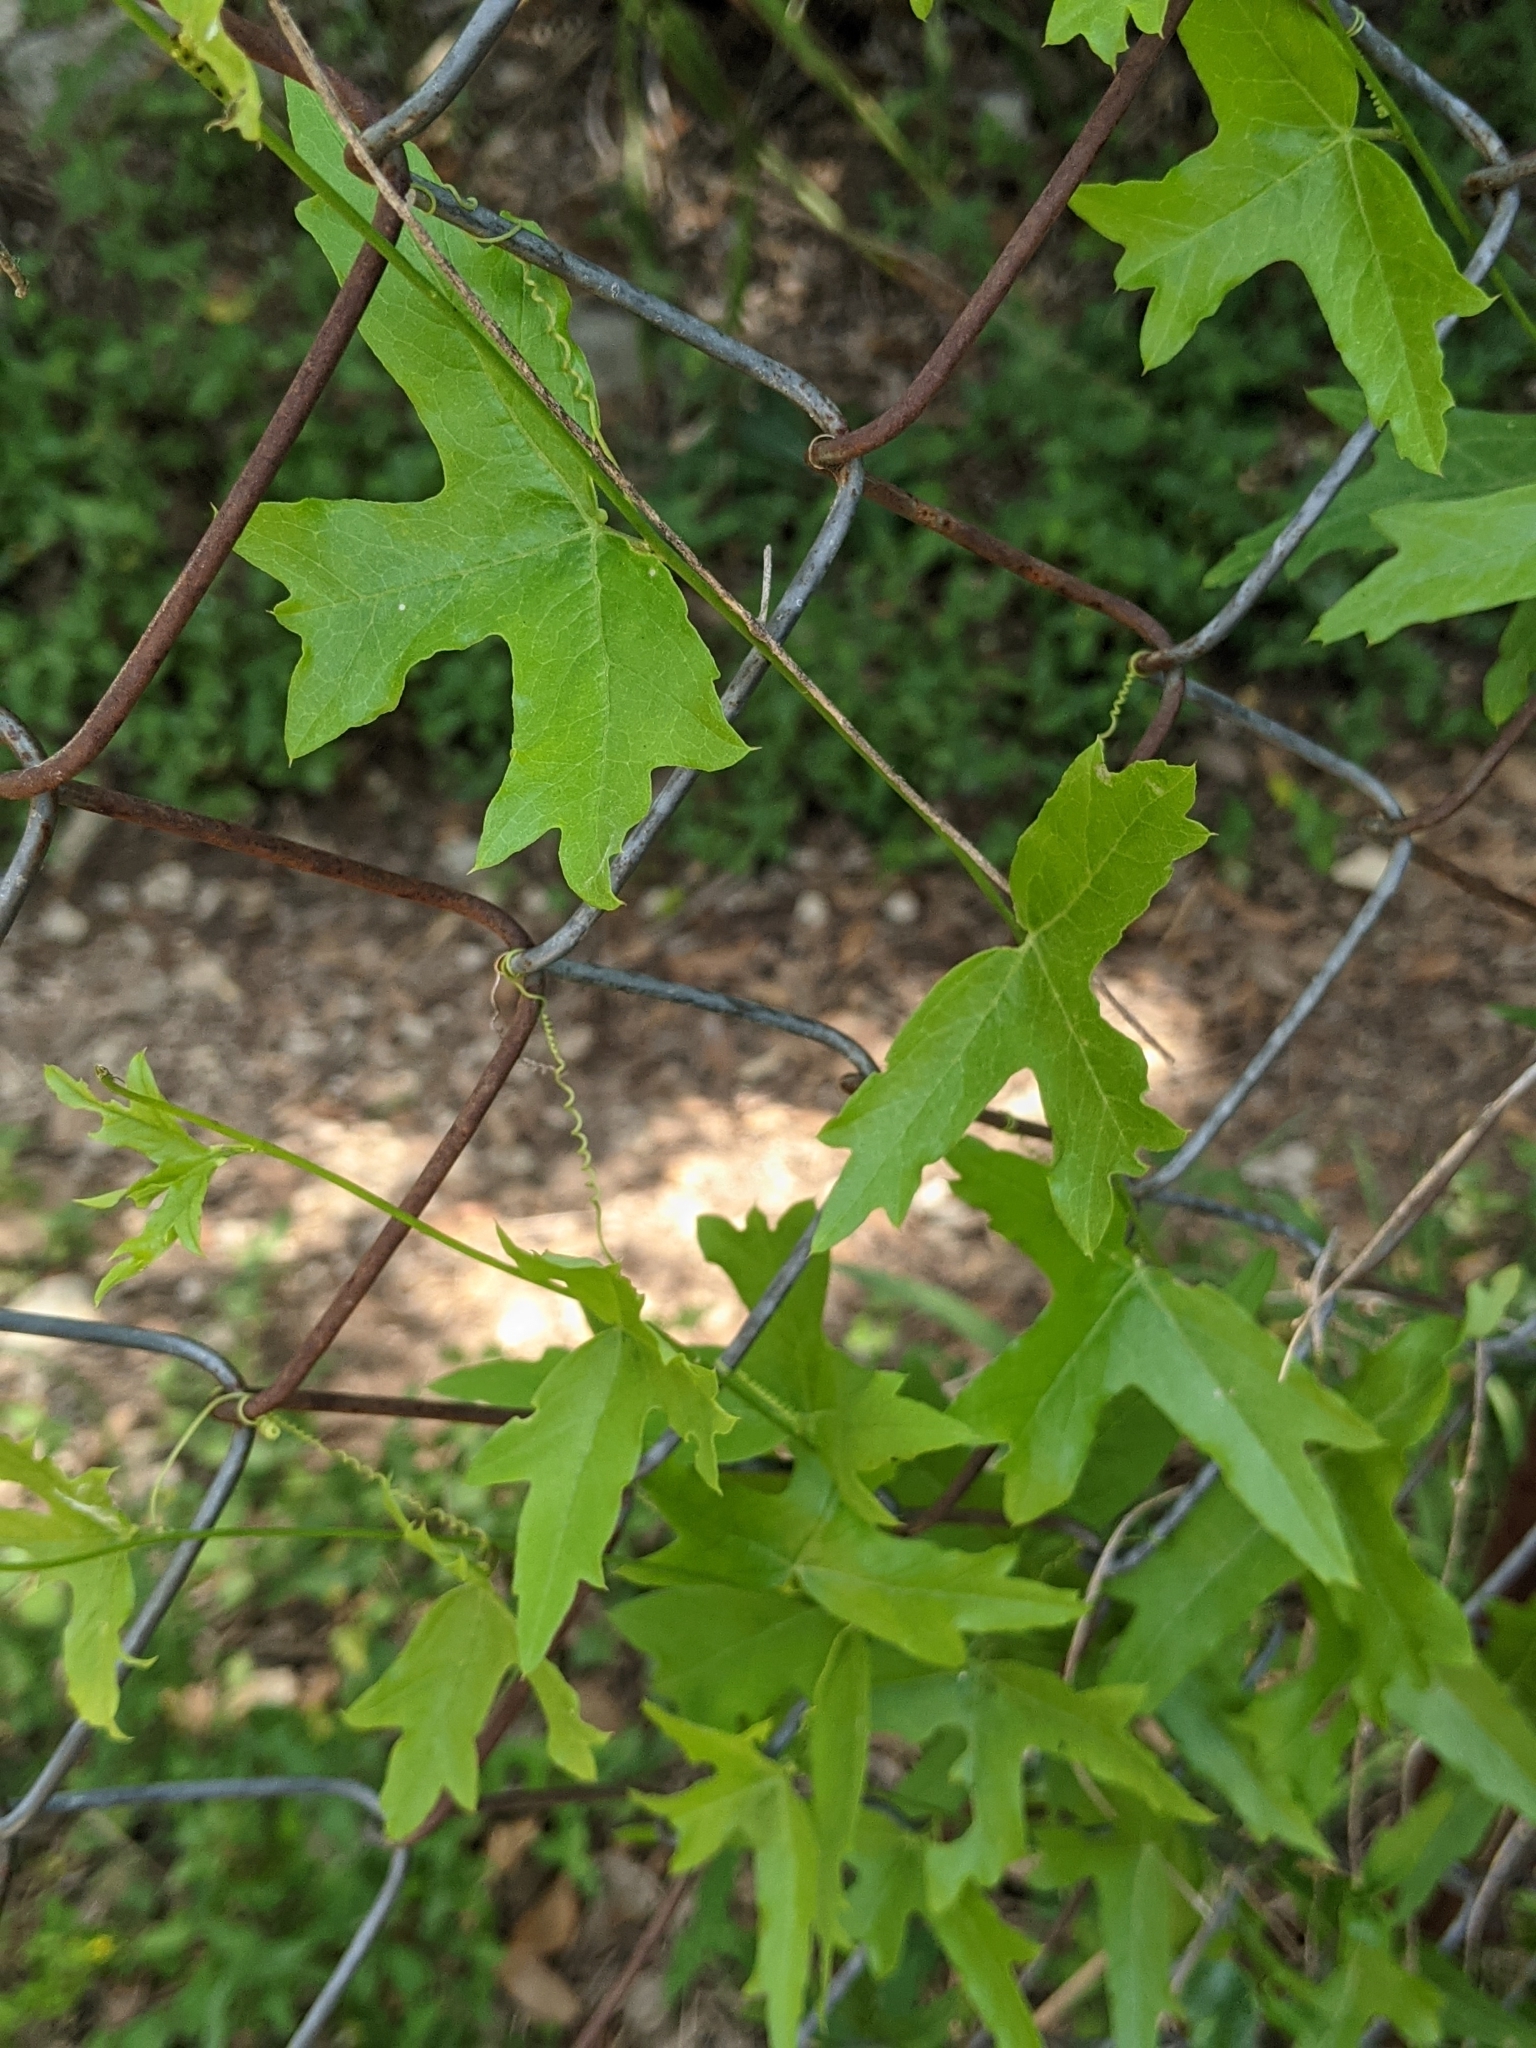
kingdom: Plantae
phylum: Tracheophyta
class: Magnoliopsida
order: Malpighiales
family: Passifloraceae
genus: Passiflora
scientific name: Passiflora tenuiloba
